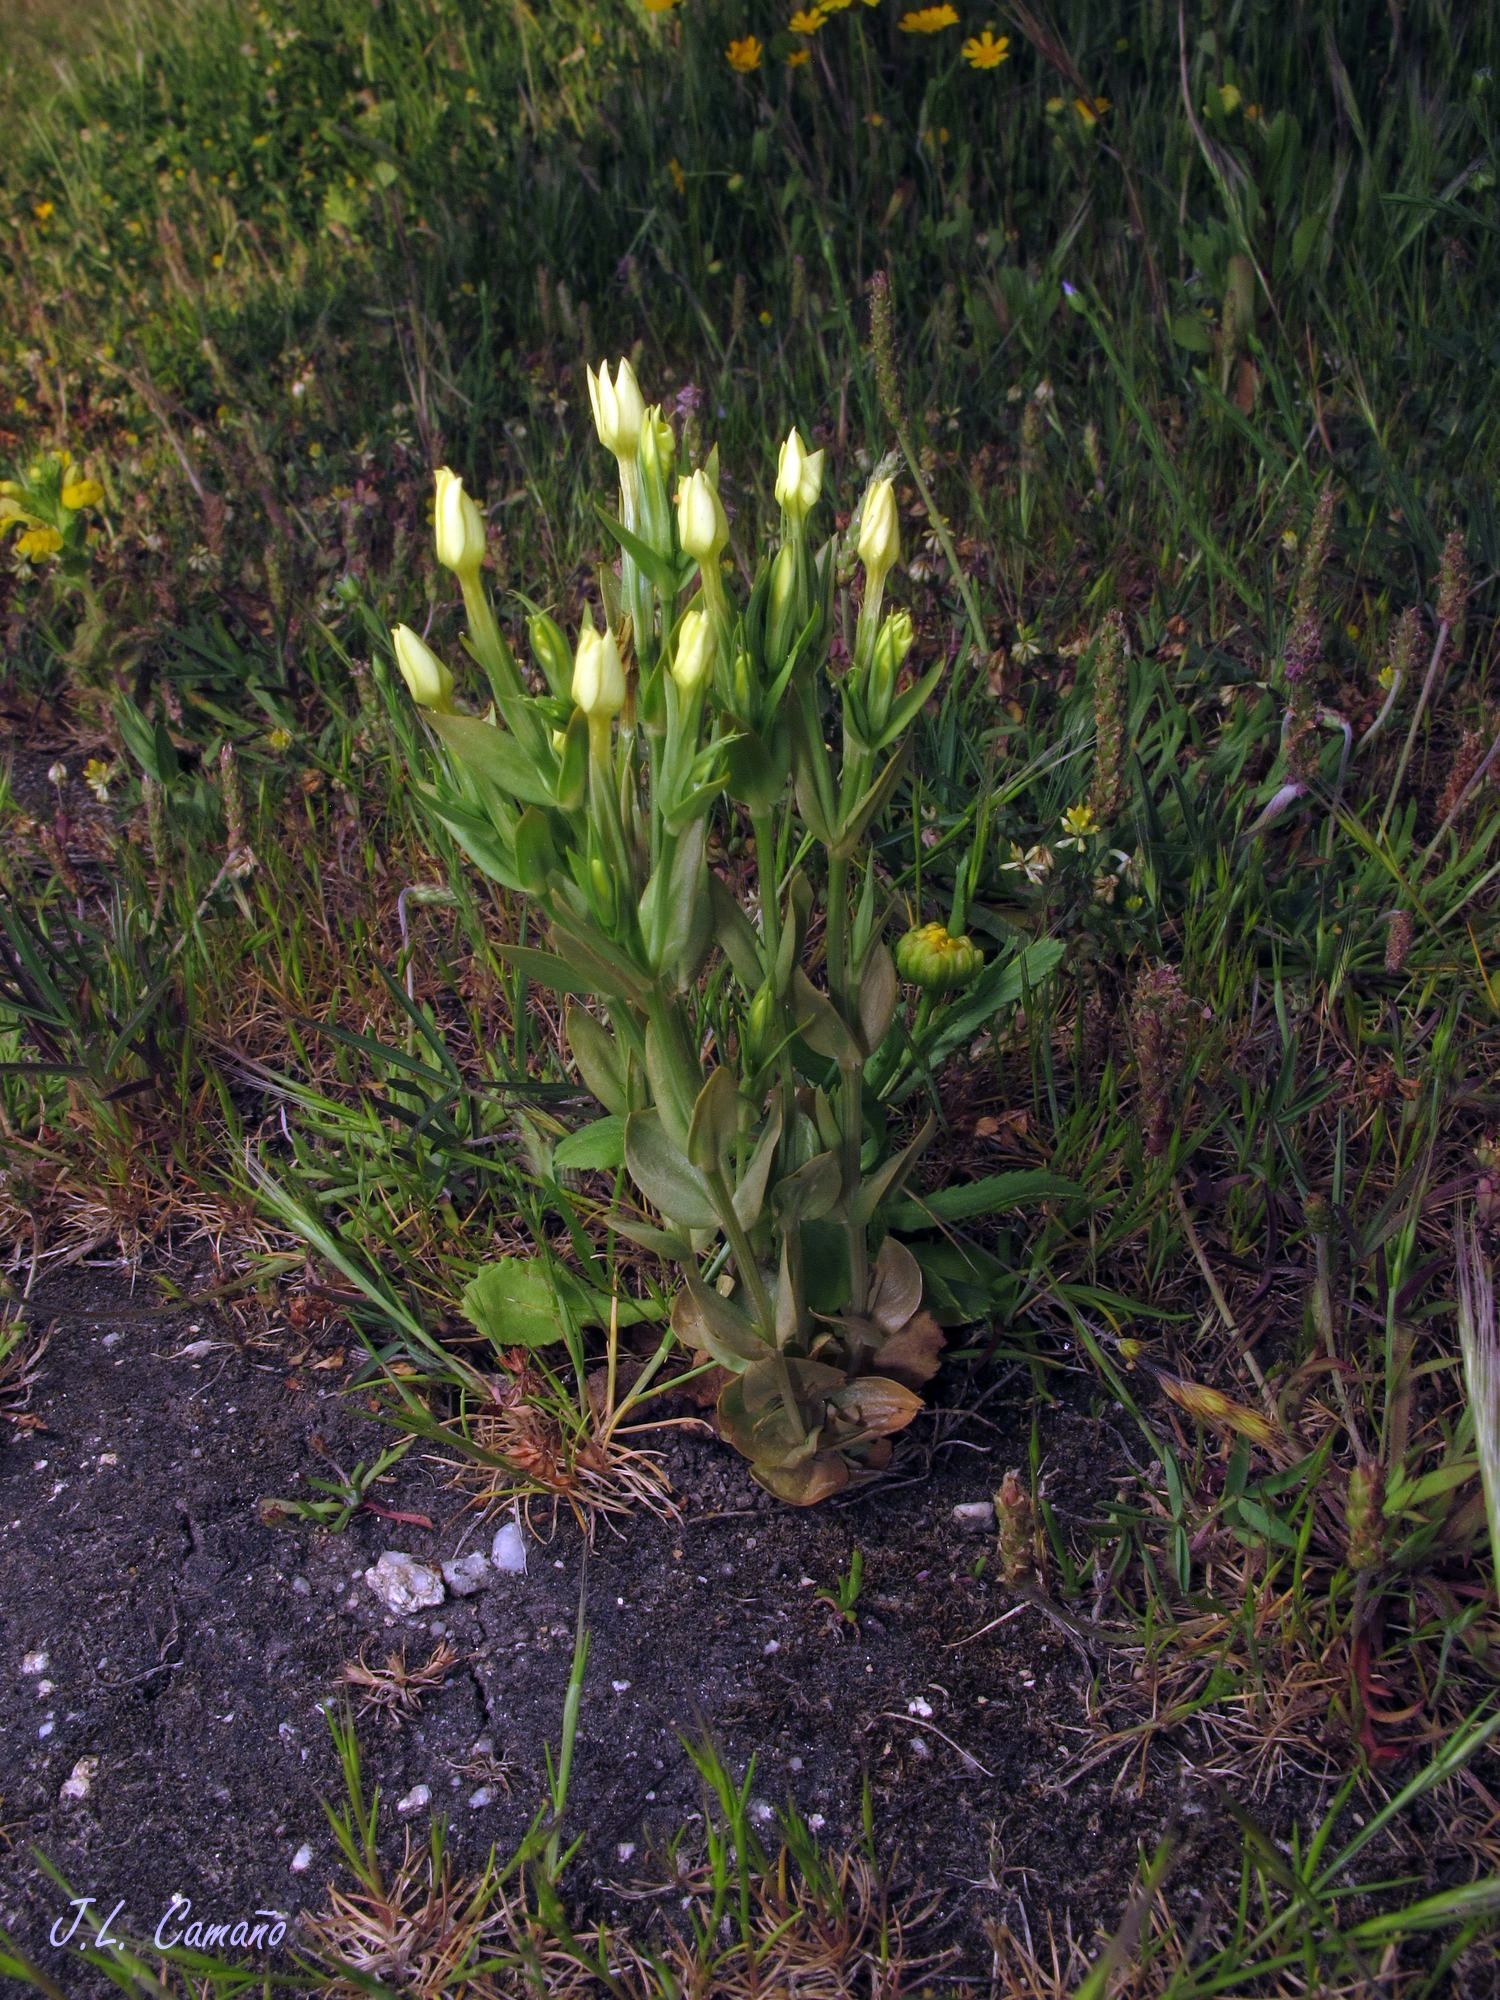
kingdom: Plantae
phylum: Tracheophyta
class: Magnoliopsida
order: Gentianales
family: Gentianaceae
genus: Centaurium
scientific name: Centaurium maritimum
